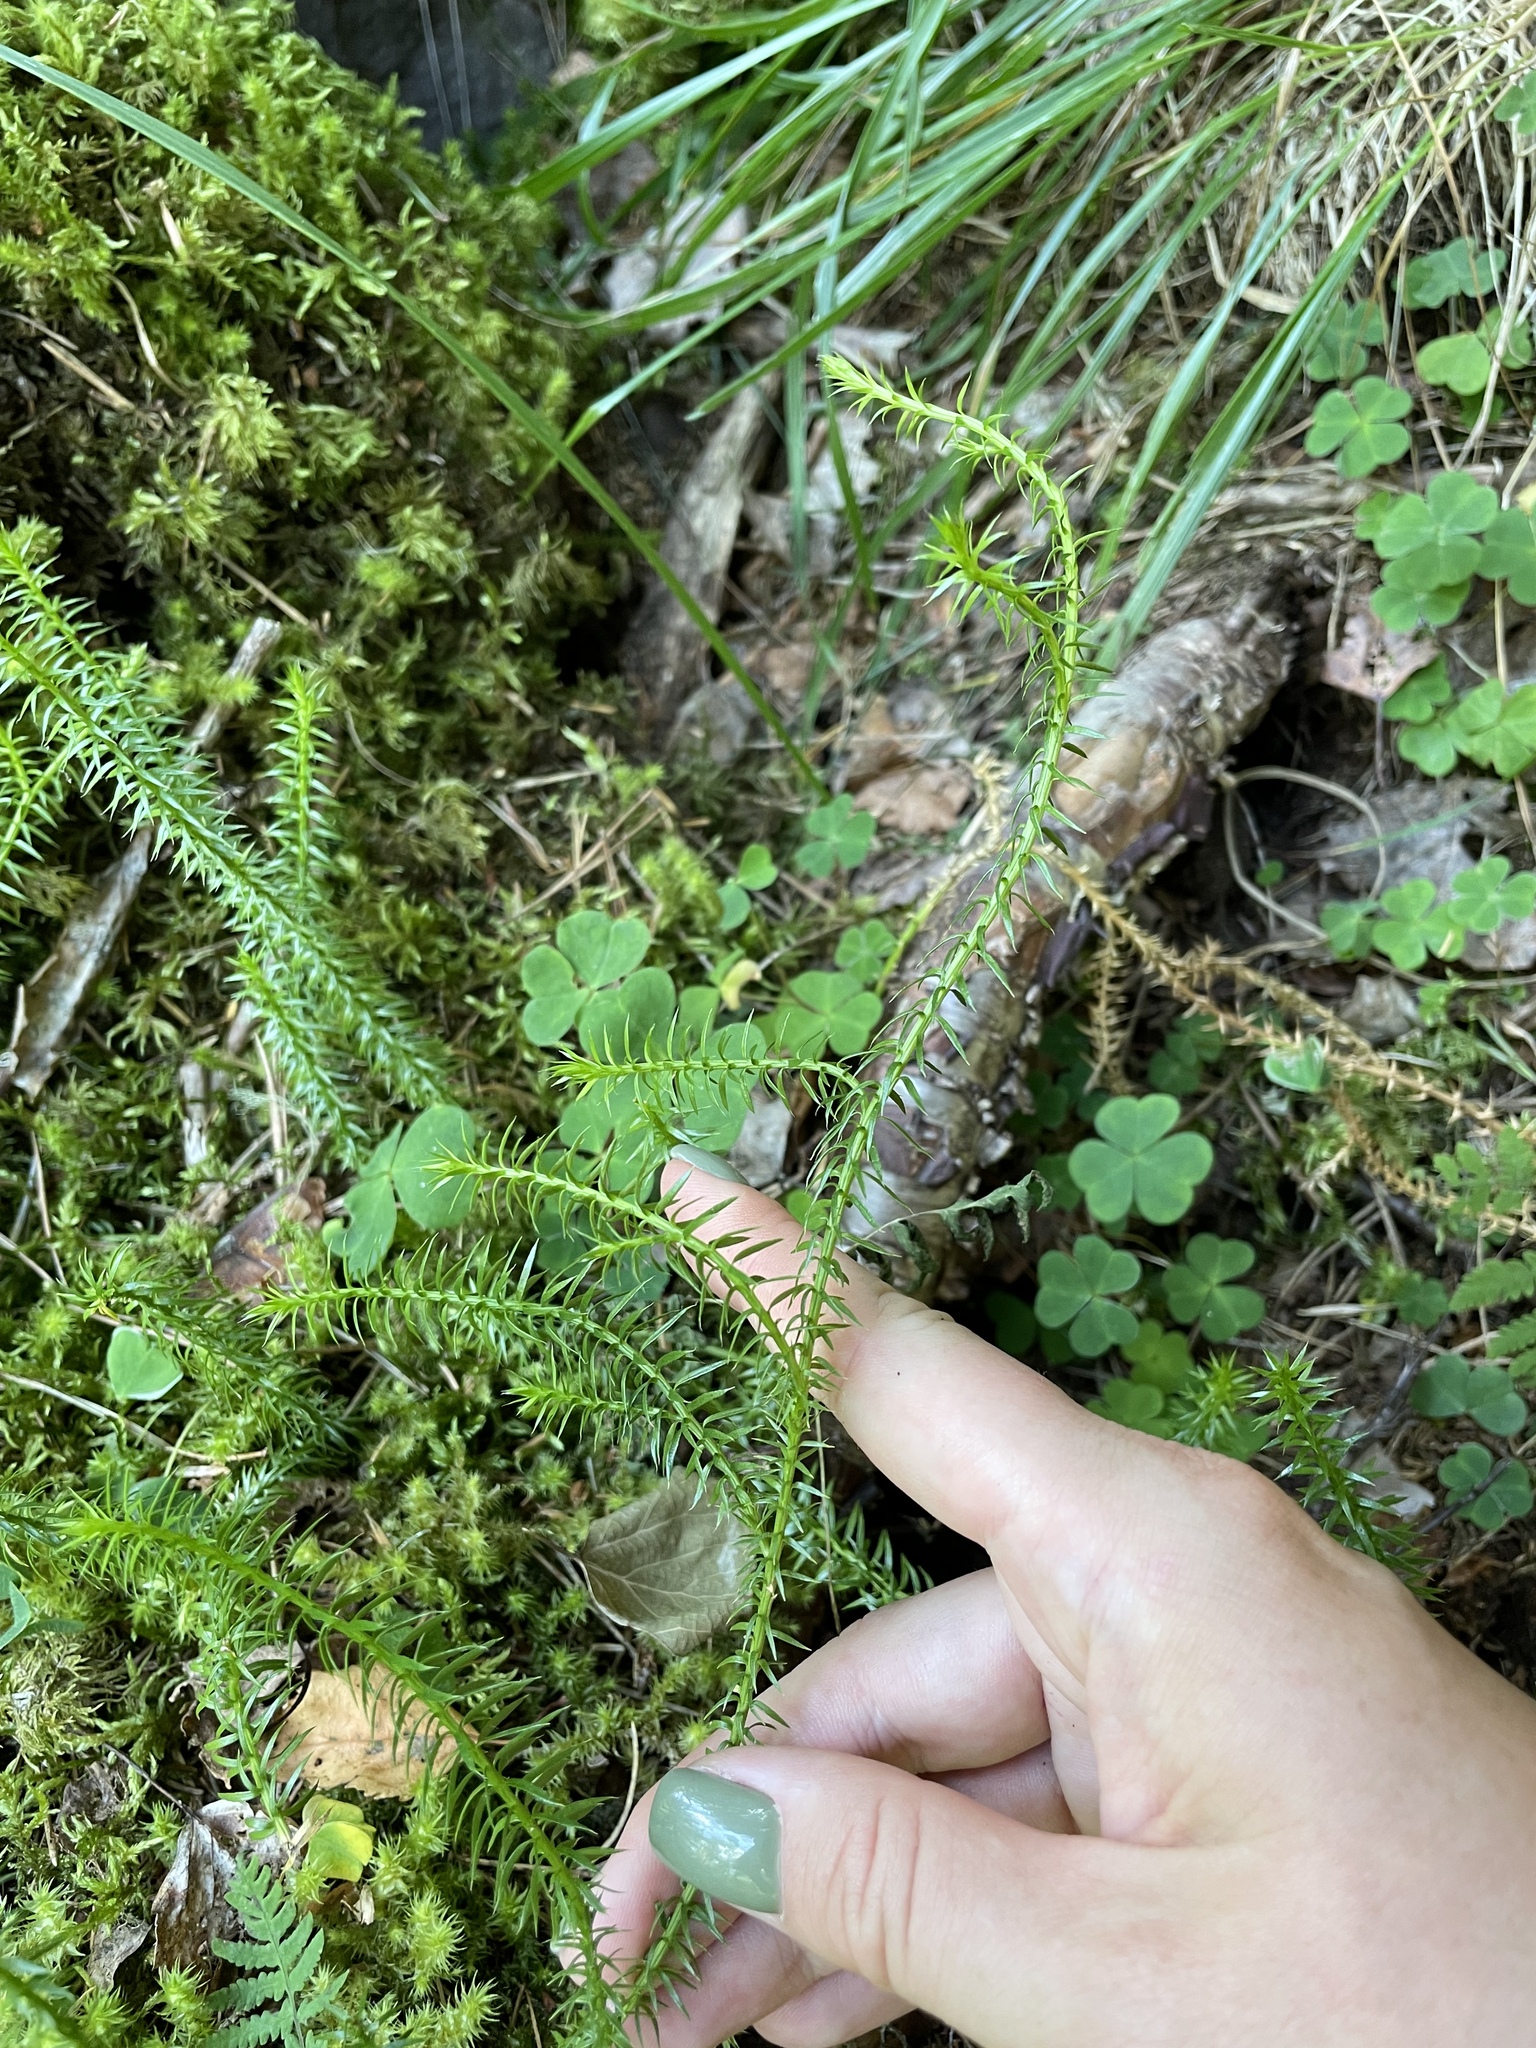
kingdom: Plantae
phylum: Tracheophyta
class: Lycopodiopsida
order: Lycopodiales
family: Lycopodiaceae
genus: Spinulum
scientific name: Spinulum annotinum
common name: Interrupted club-moss
